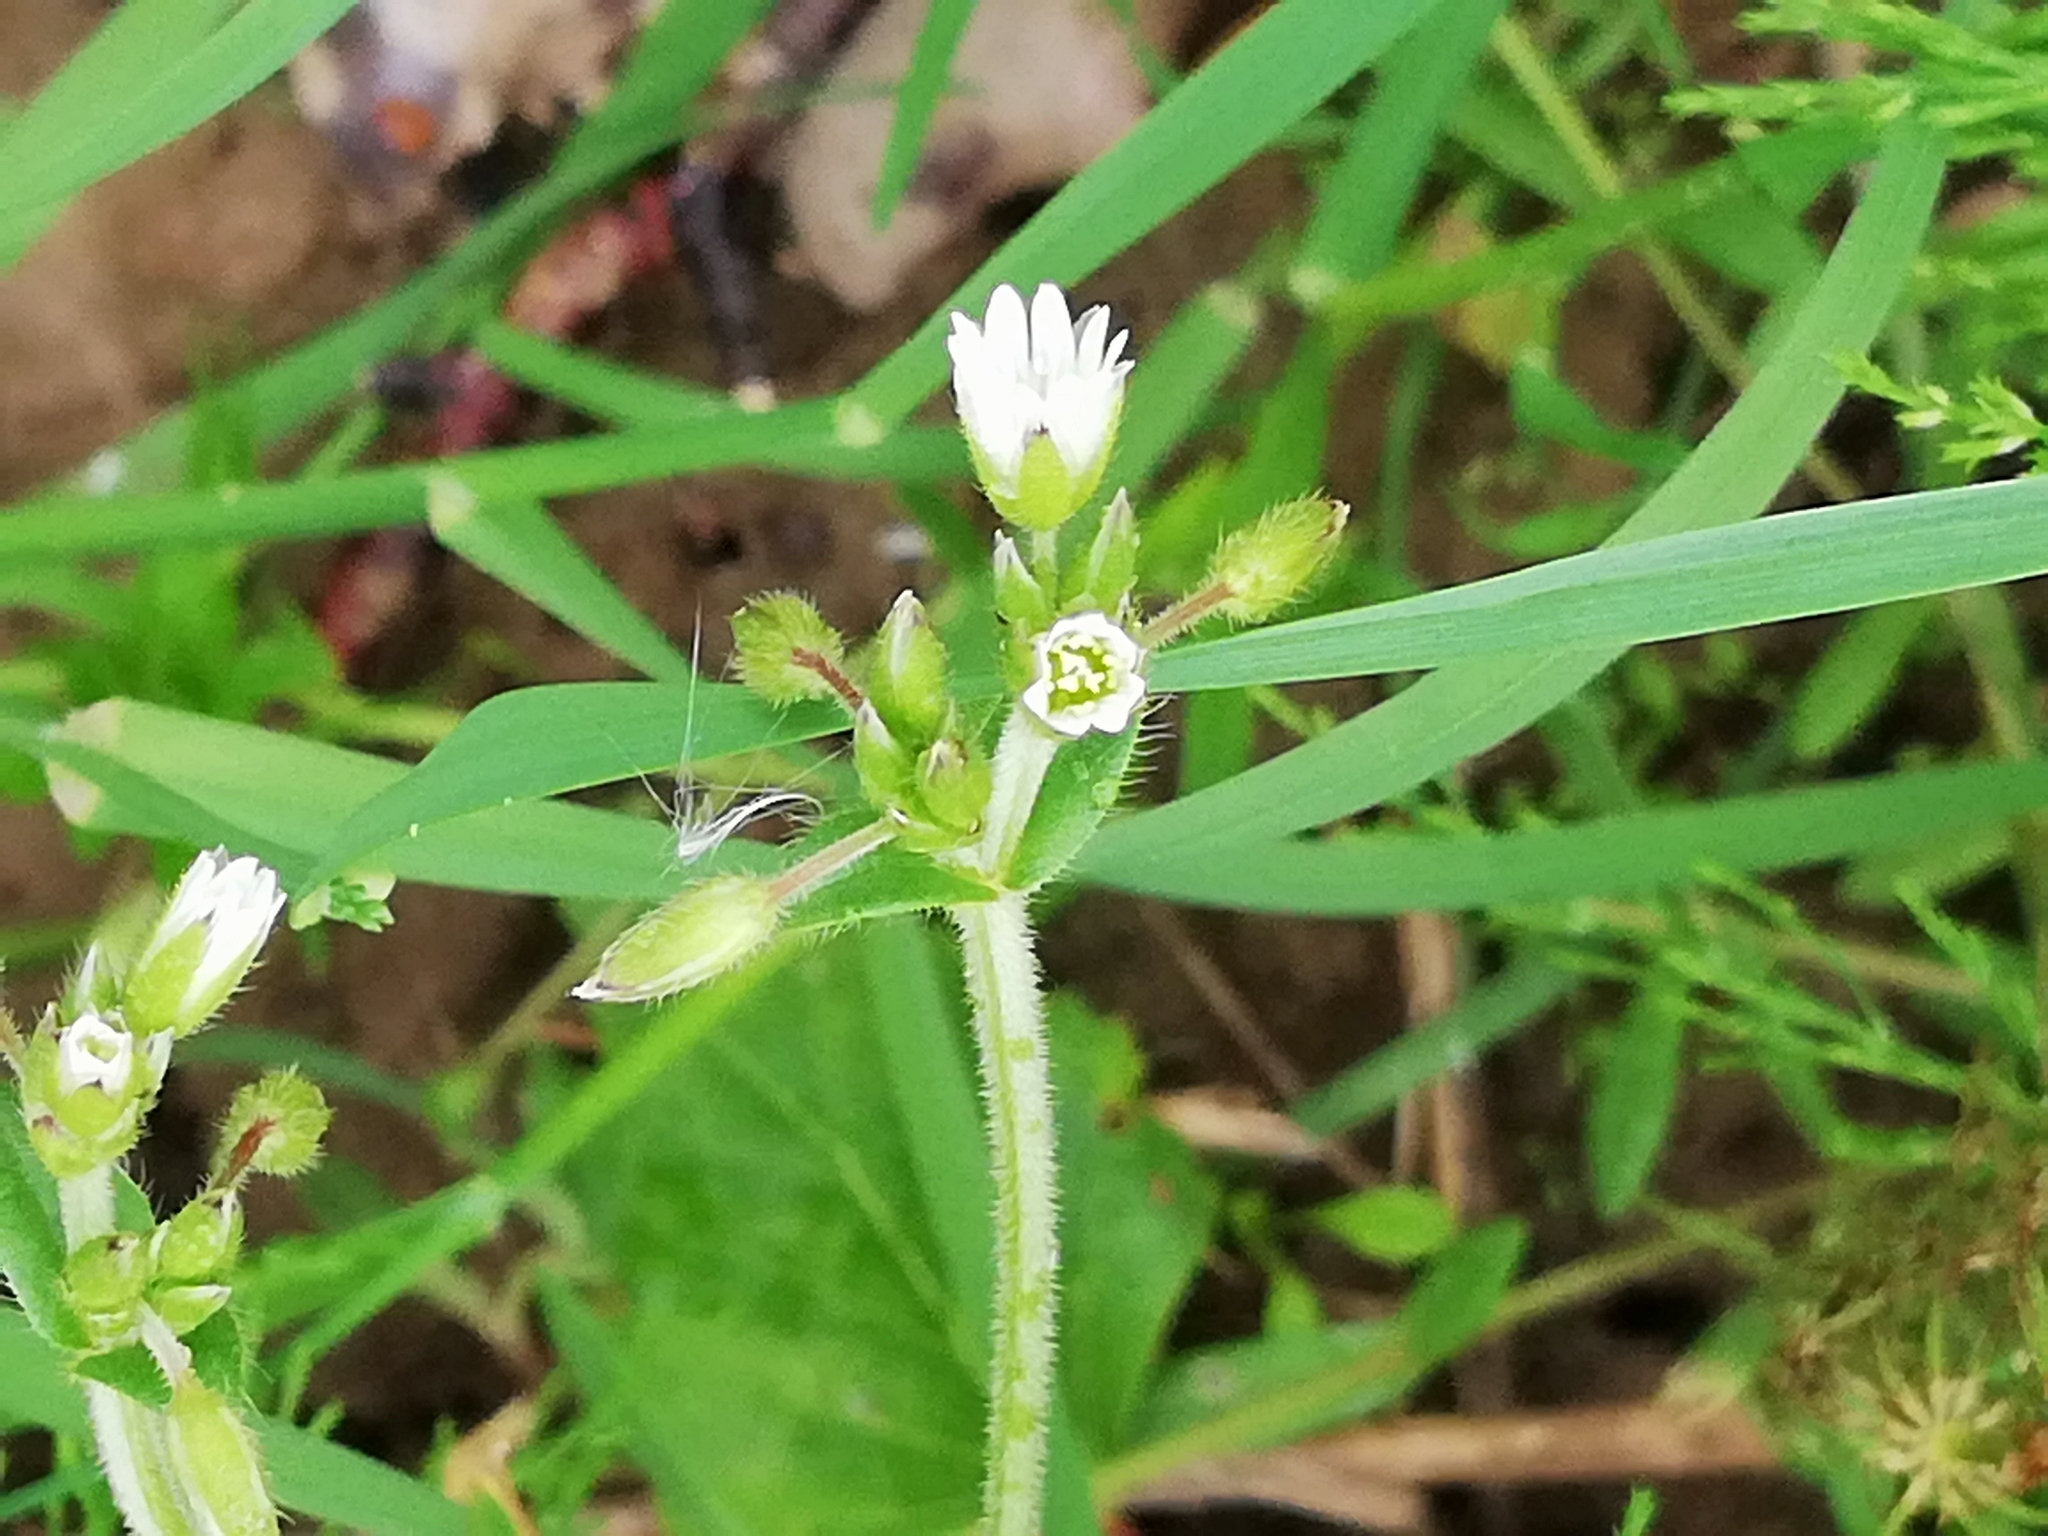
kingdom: Plantae
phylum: Tracheophyta
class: Magnoliopsida
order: Caryophyllales
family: Caryophyllaceae
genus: Cerastium
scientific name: Cerastium holosteoides
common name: Big chickweed
